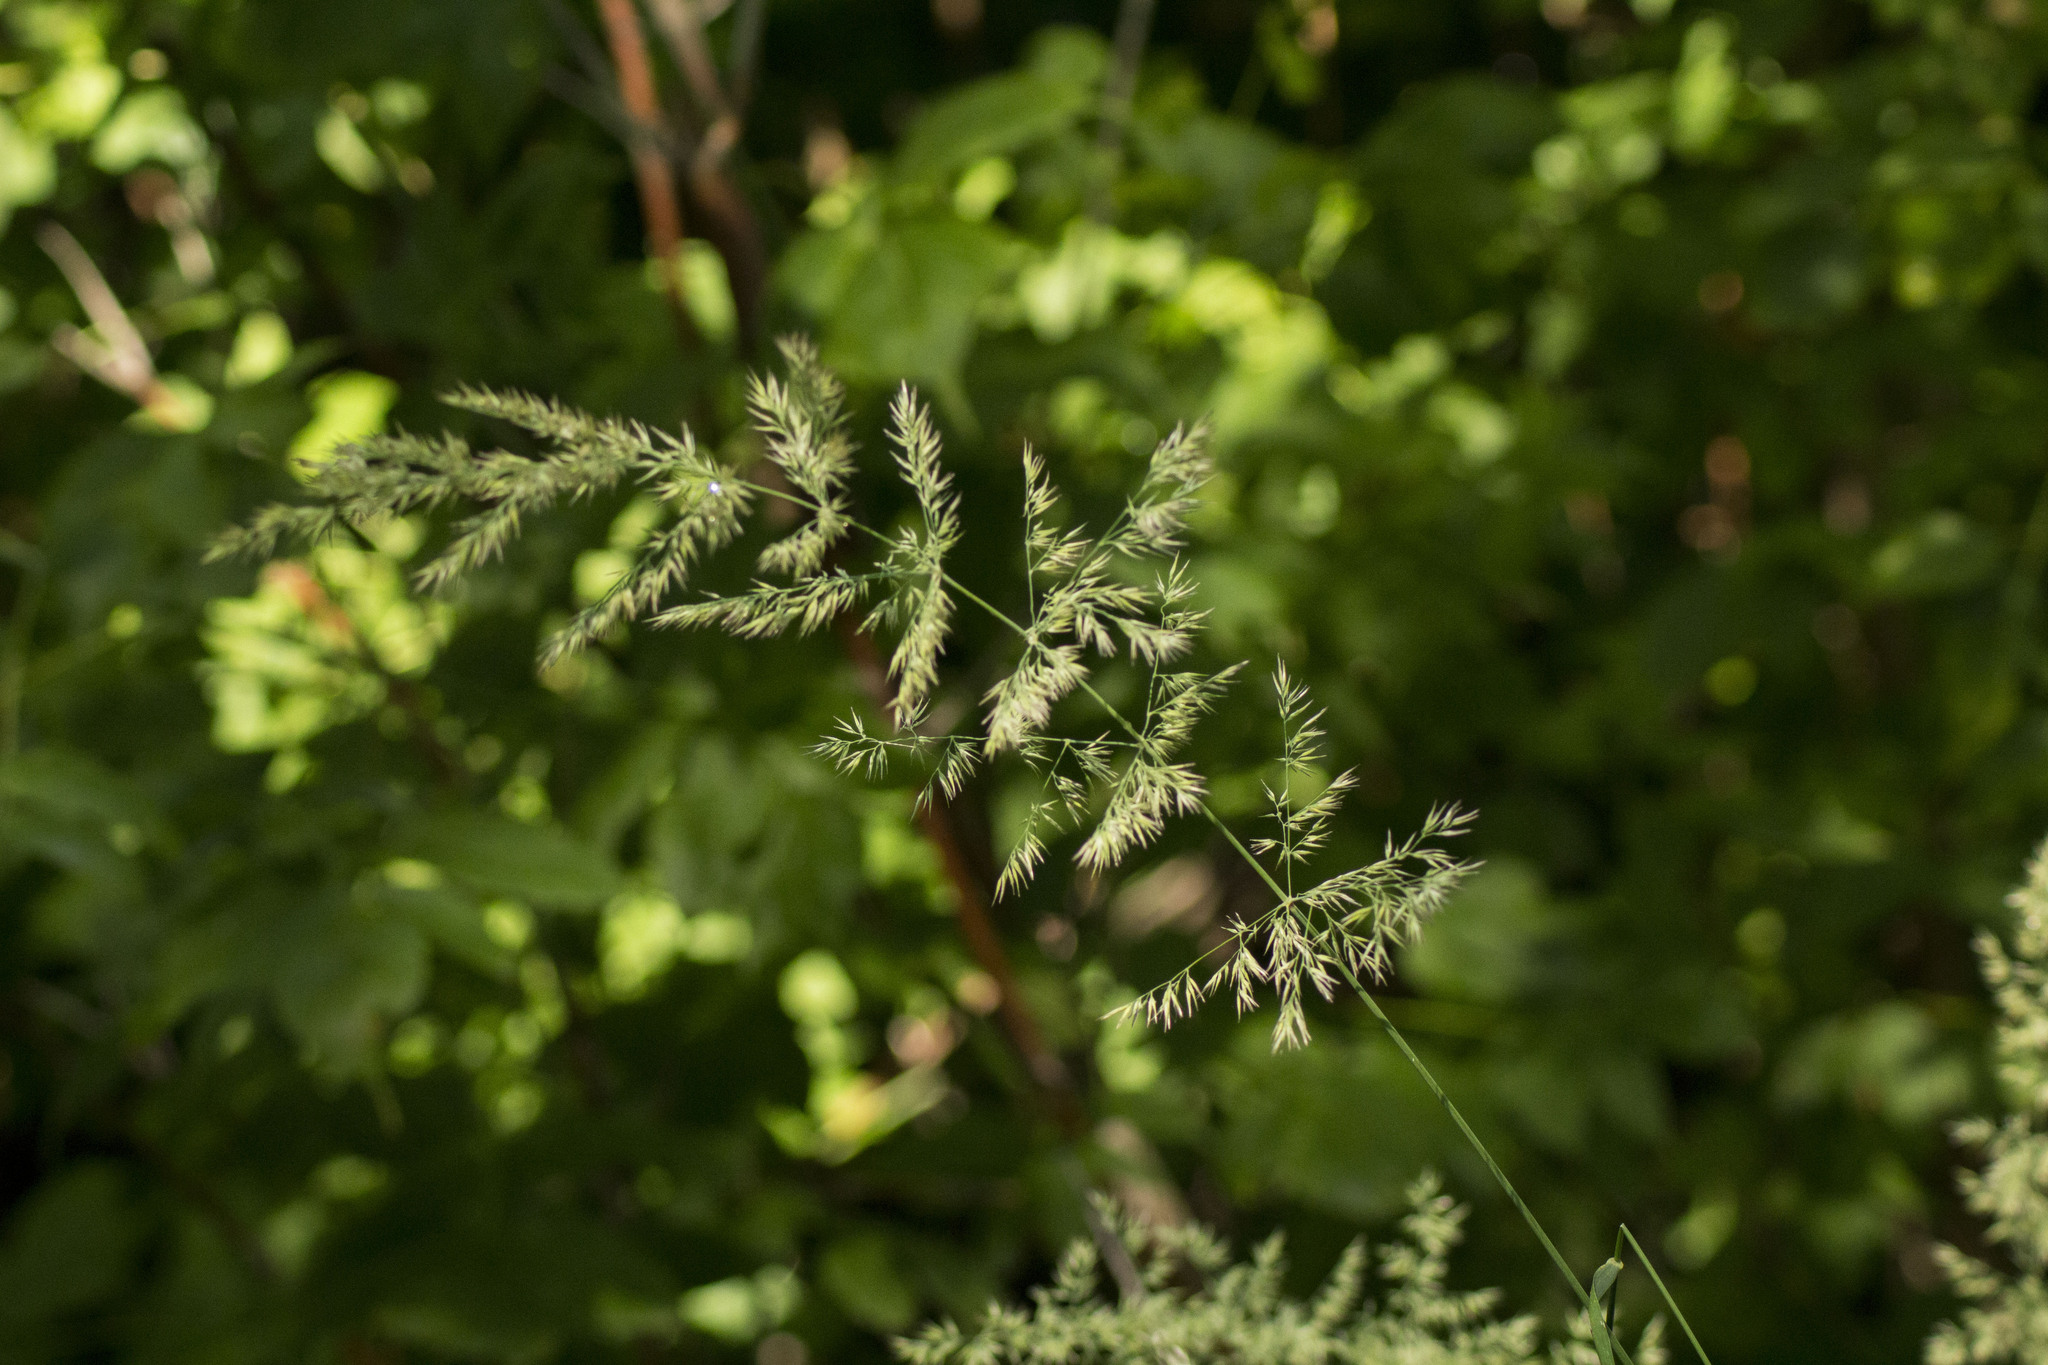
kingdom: Plantae
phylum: Tracheophyta
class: Liliopsida
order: Poales
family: Poaceae
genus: Calamagrostis
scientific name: Calamagrostis epigejos
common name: Wood small-reed
